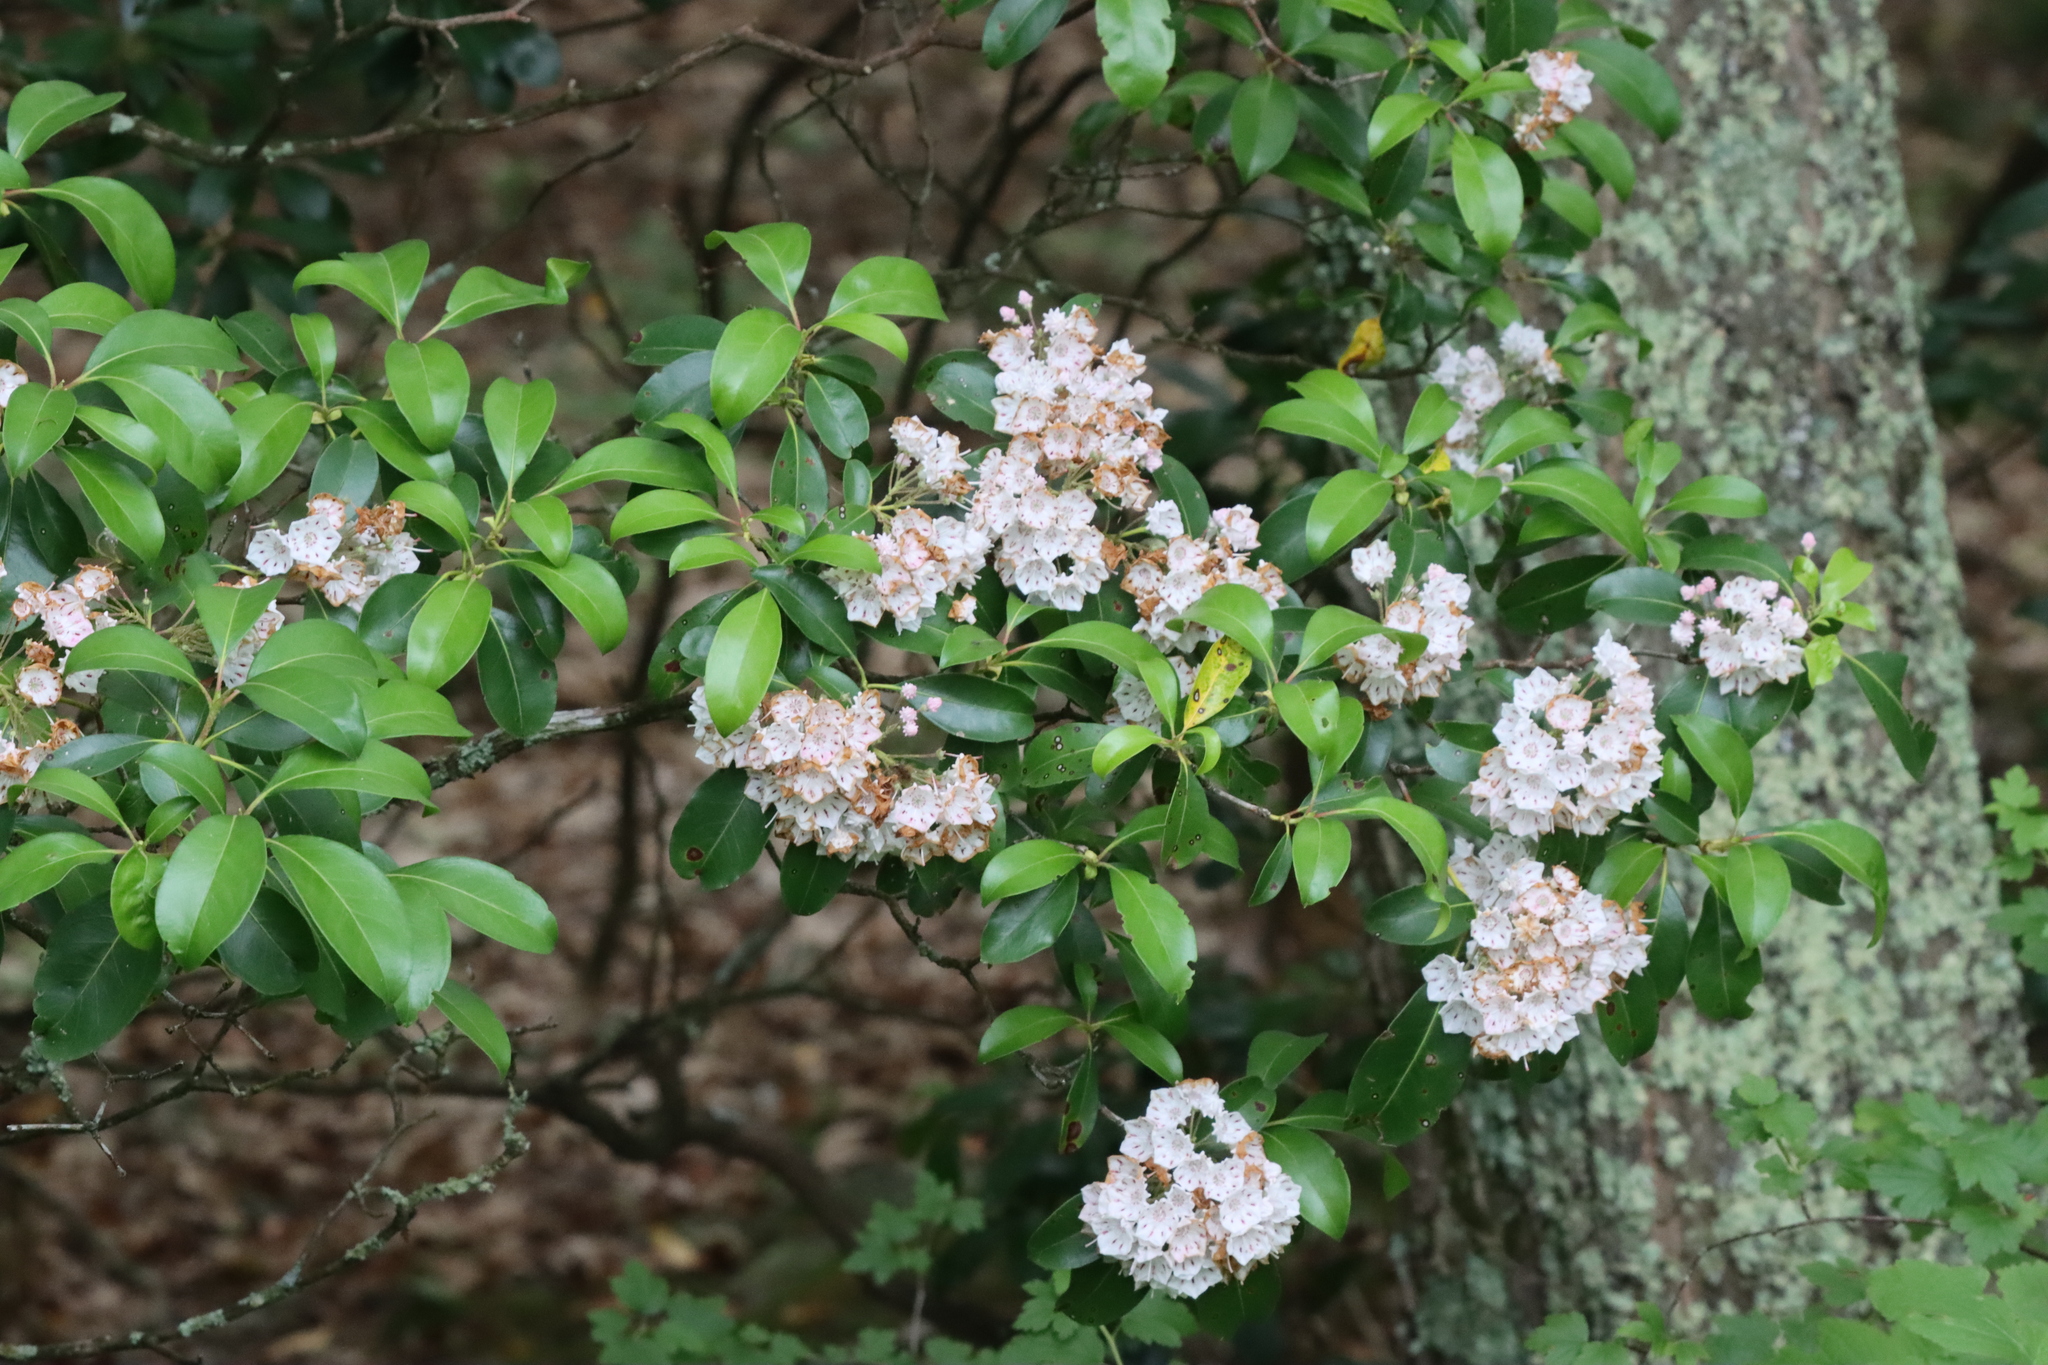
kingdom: Plantae
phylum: Tracheophyta
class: Magnoliopsida
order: Ericales
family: Ericaceae
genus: Kalmia
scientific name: Kalmia latifolia
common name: Mountain-laurel
